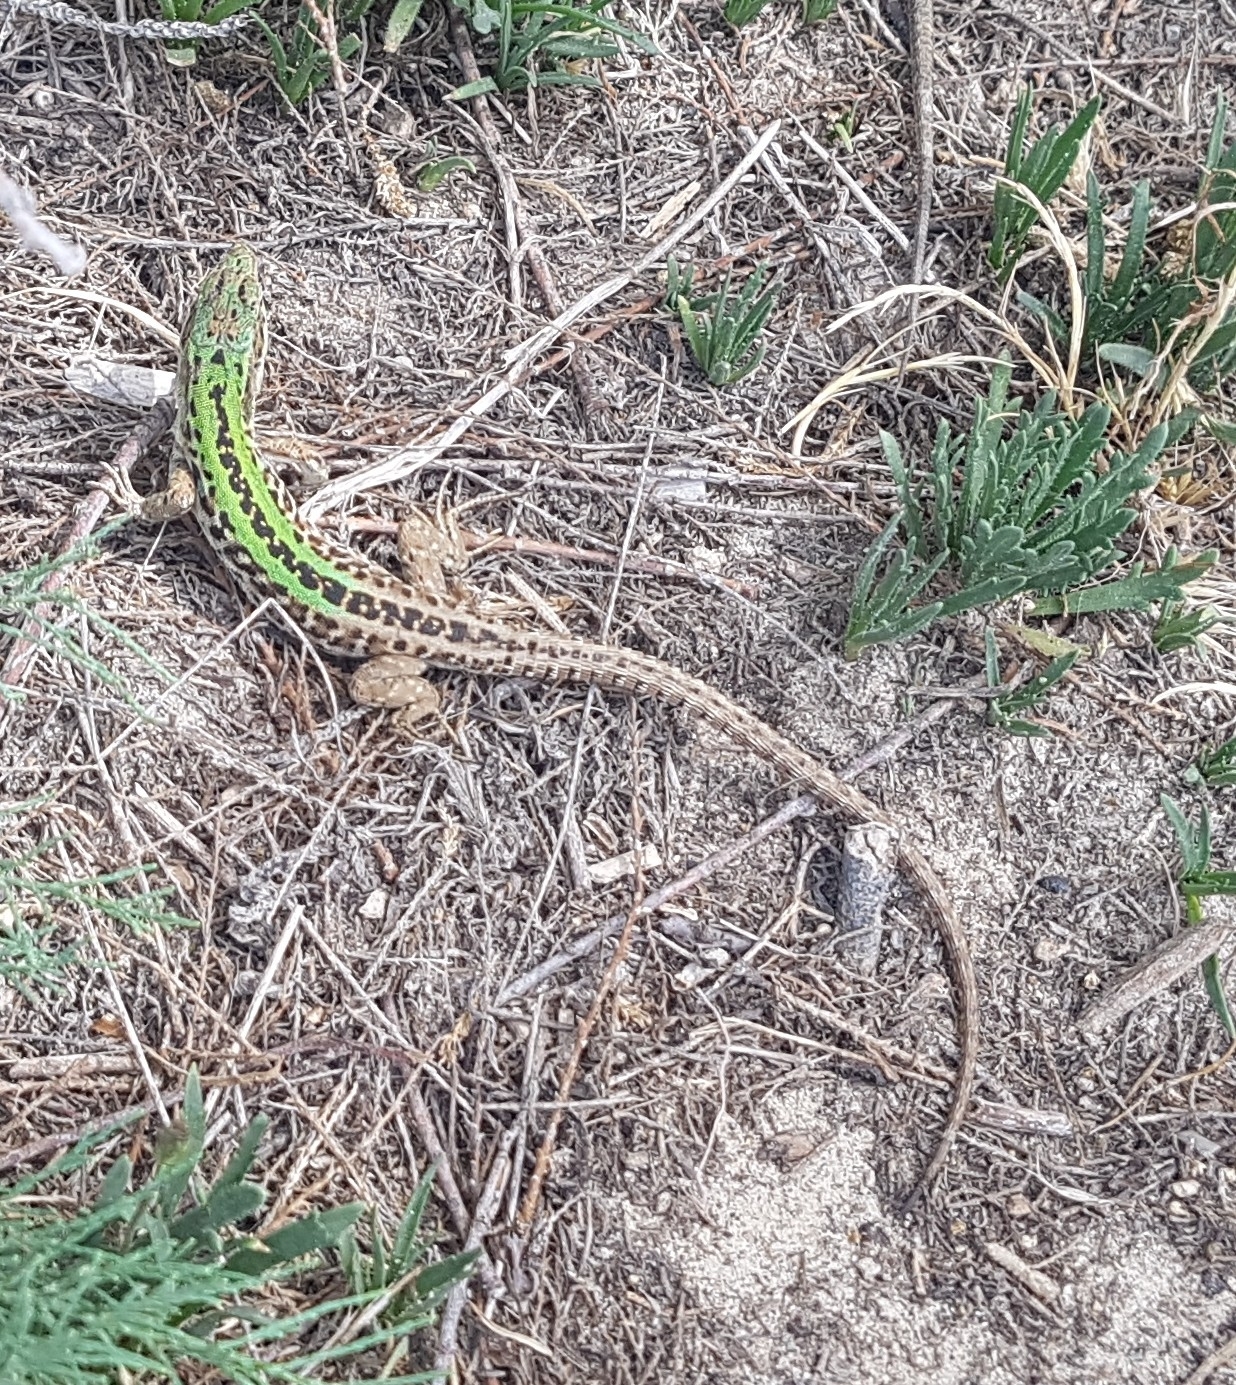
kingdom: Animalia
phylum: Chordata
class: Squamata
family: Lacertidae
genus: Podarcis
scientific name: Podarcis siculus
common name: Italian wall lizard
